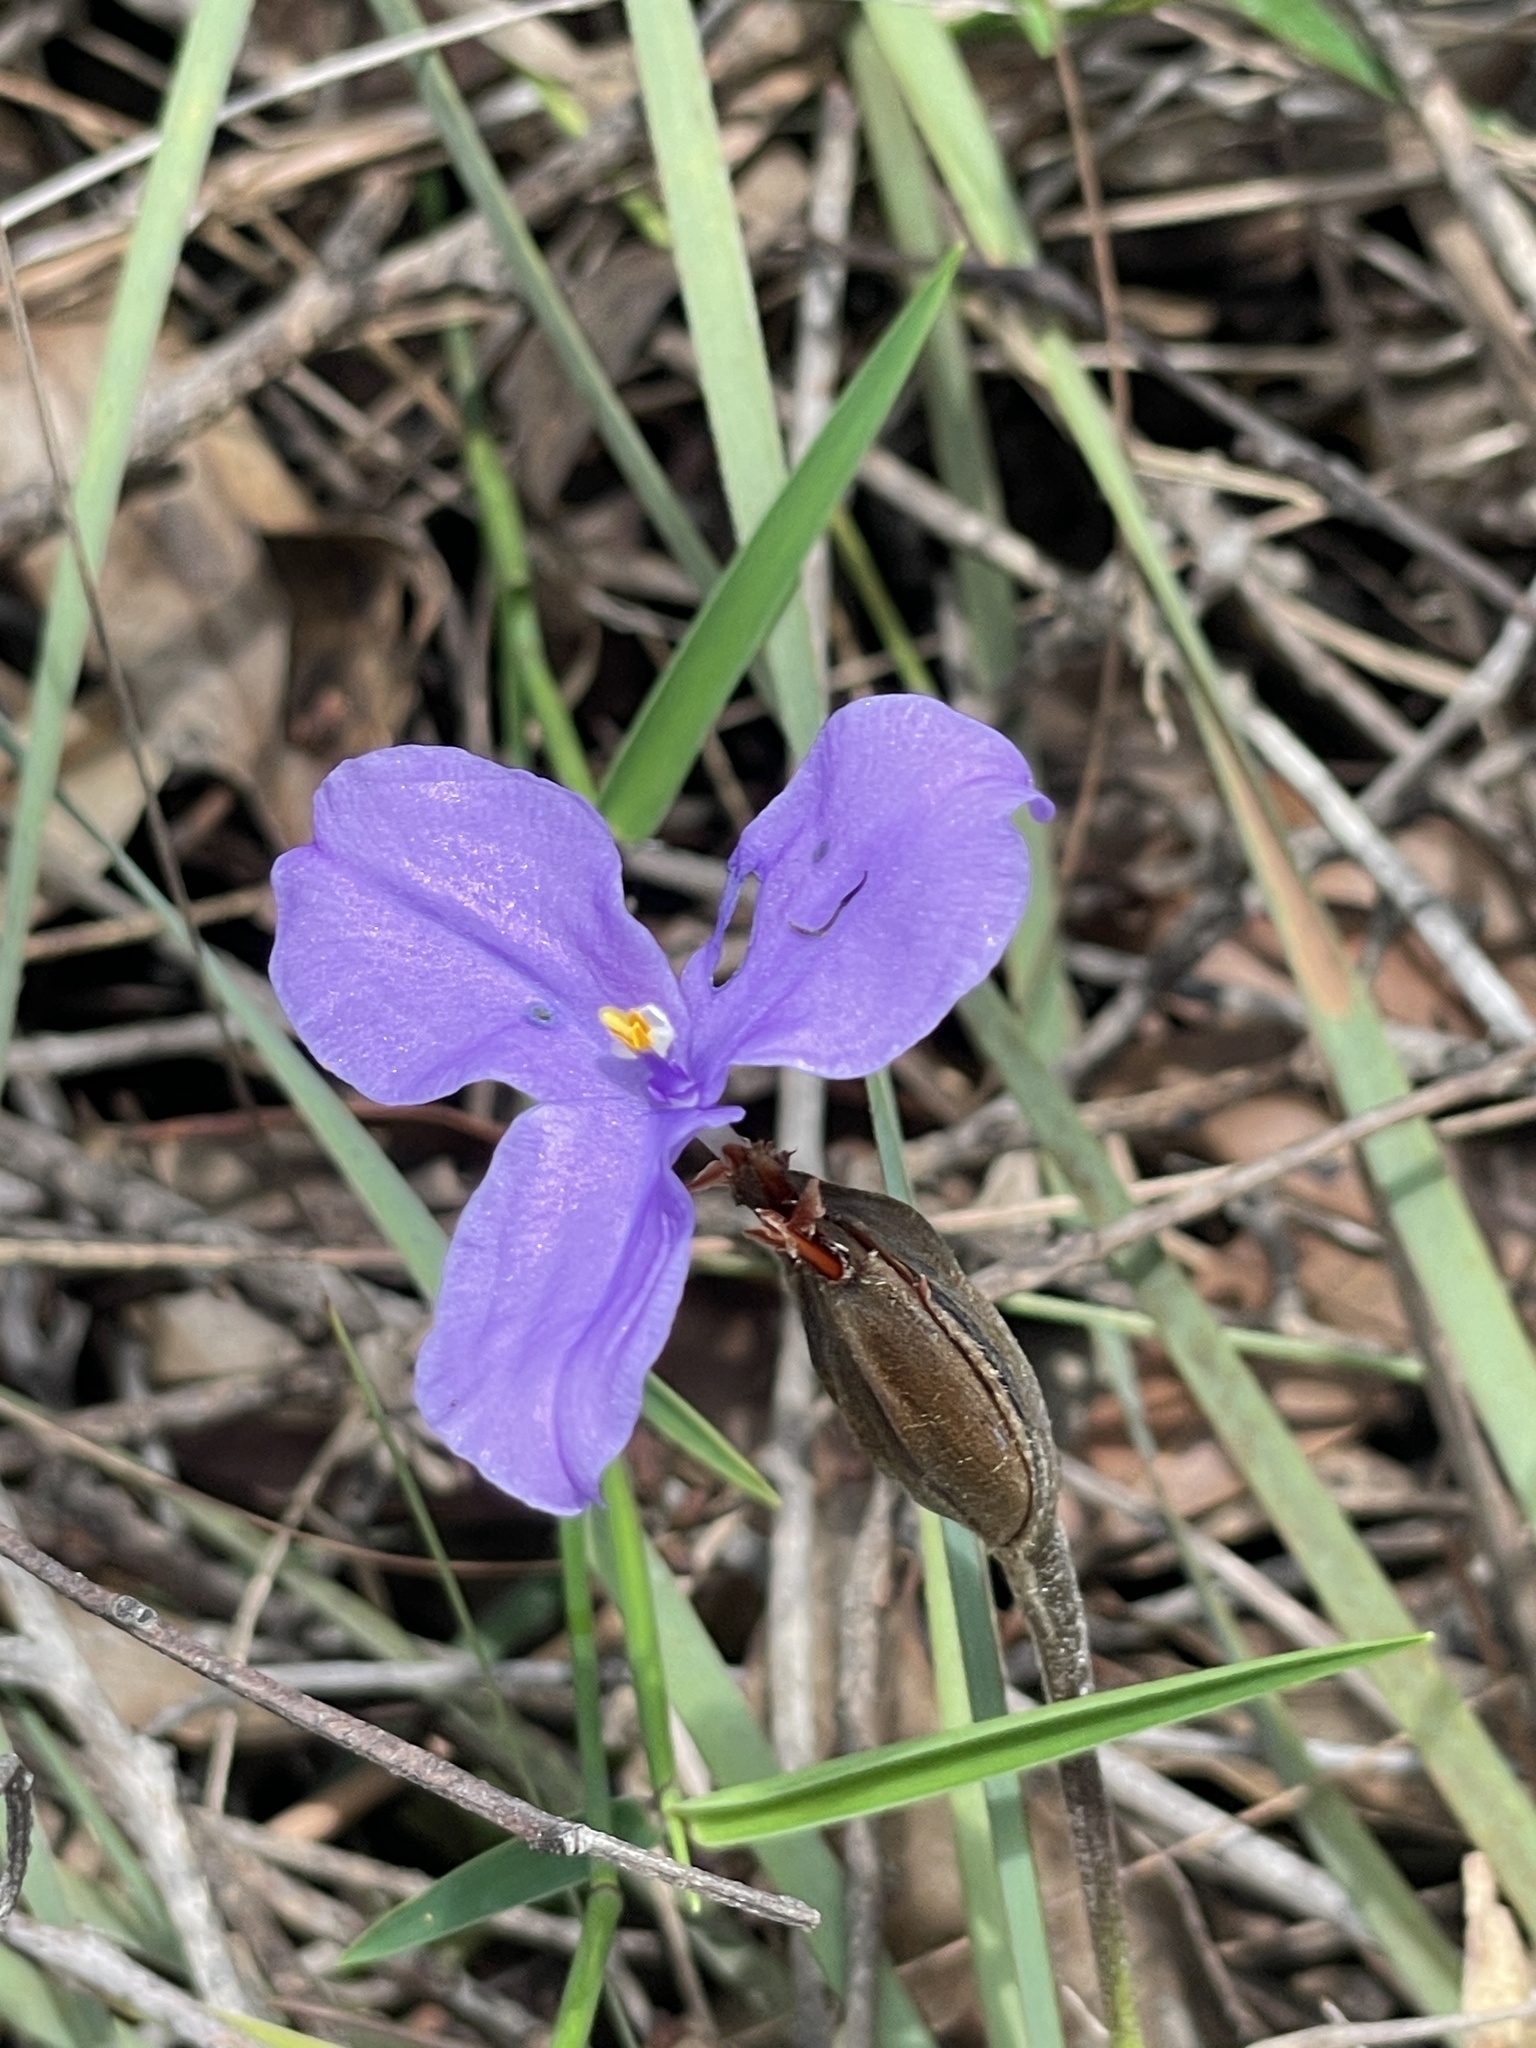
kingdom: Plantae
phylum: Tracheophyta
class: Liliopsida
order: Asparagales
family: Iridaceae
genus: Patersonia
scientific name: Patersonia sericea
